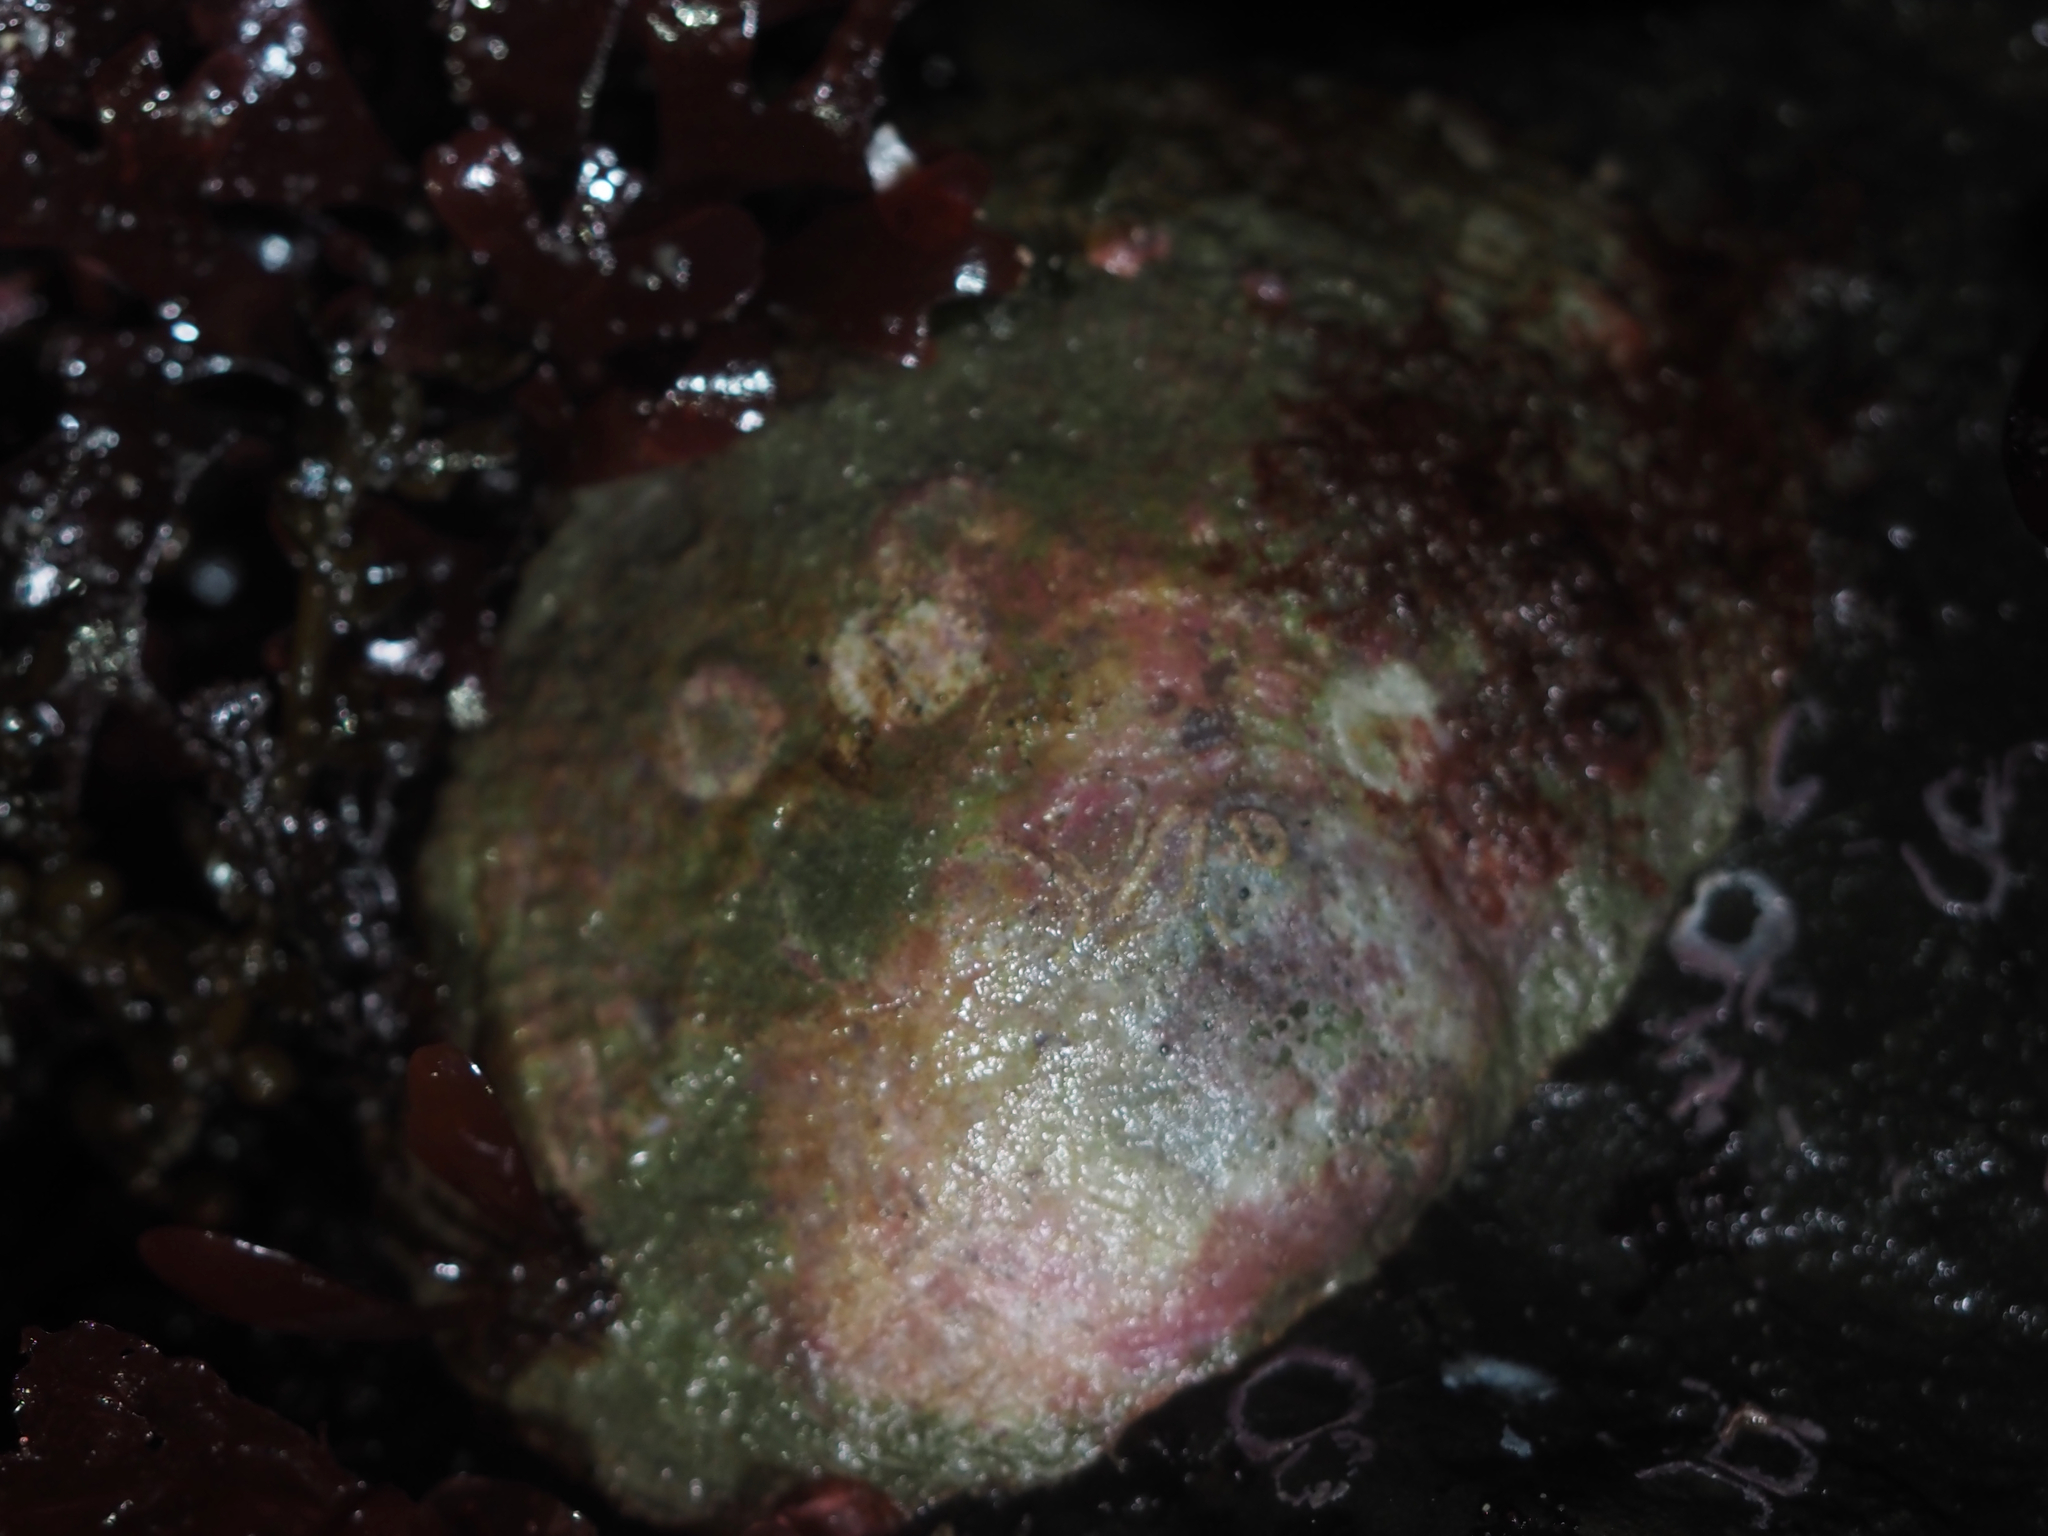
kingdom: Animalia
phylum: Mollusca
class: Bivalvia
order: Pectinida
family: Anomiidae
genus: Pododesmus
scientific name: Pododesmus macrochisma
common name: Alaska jingle
